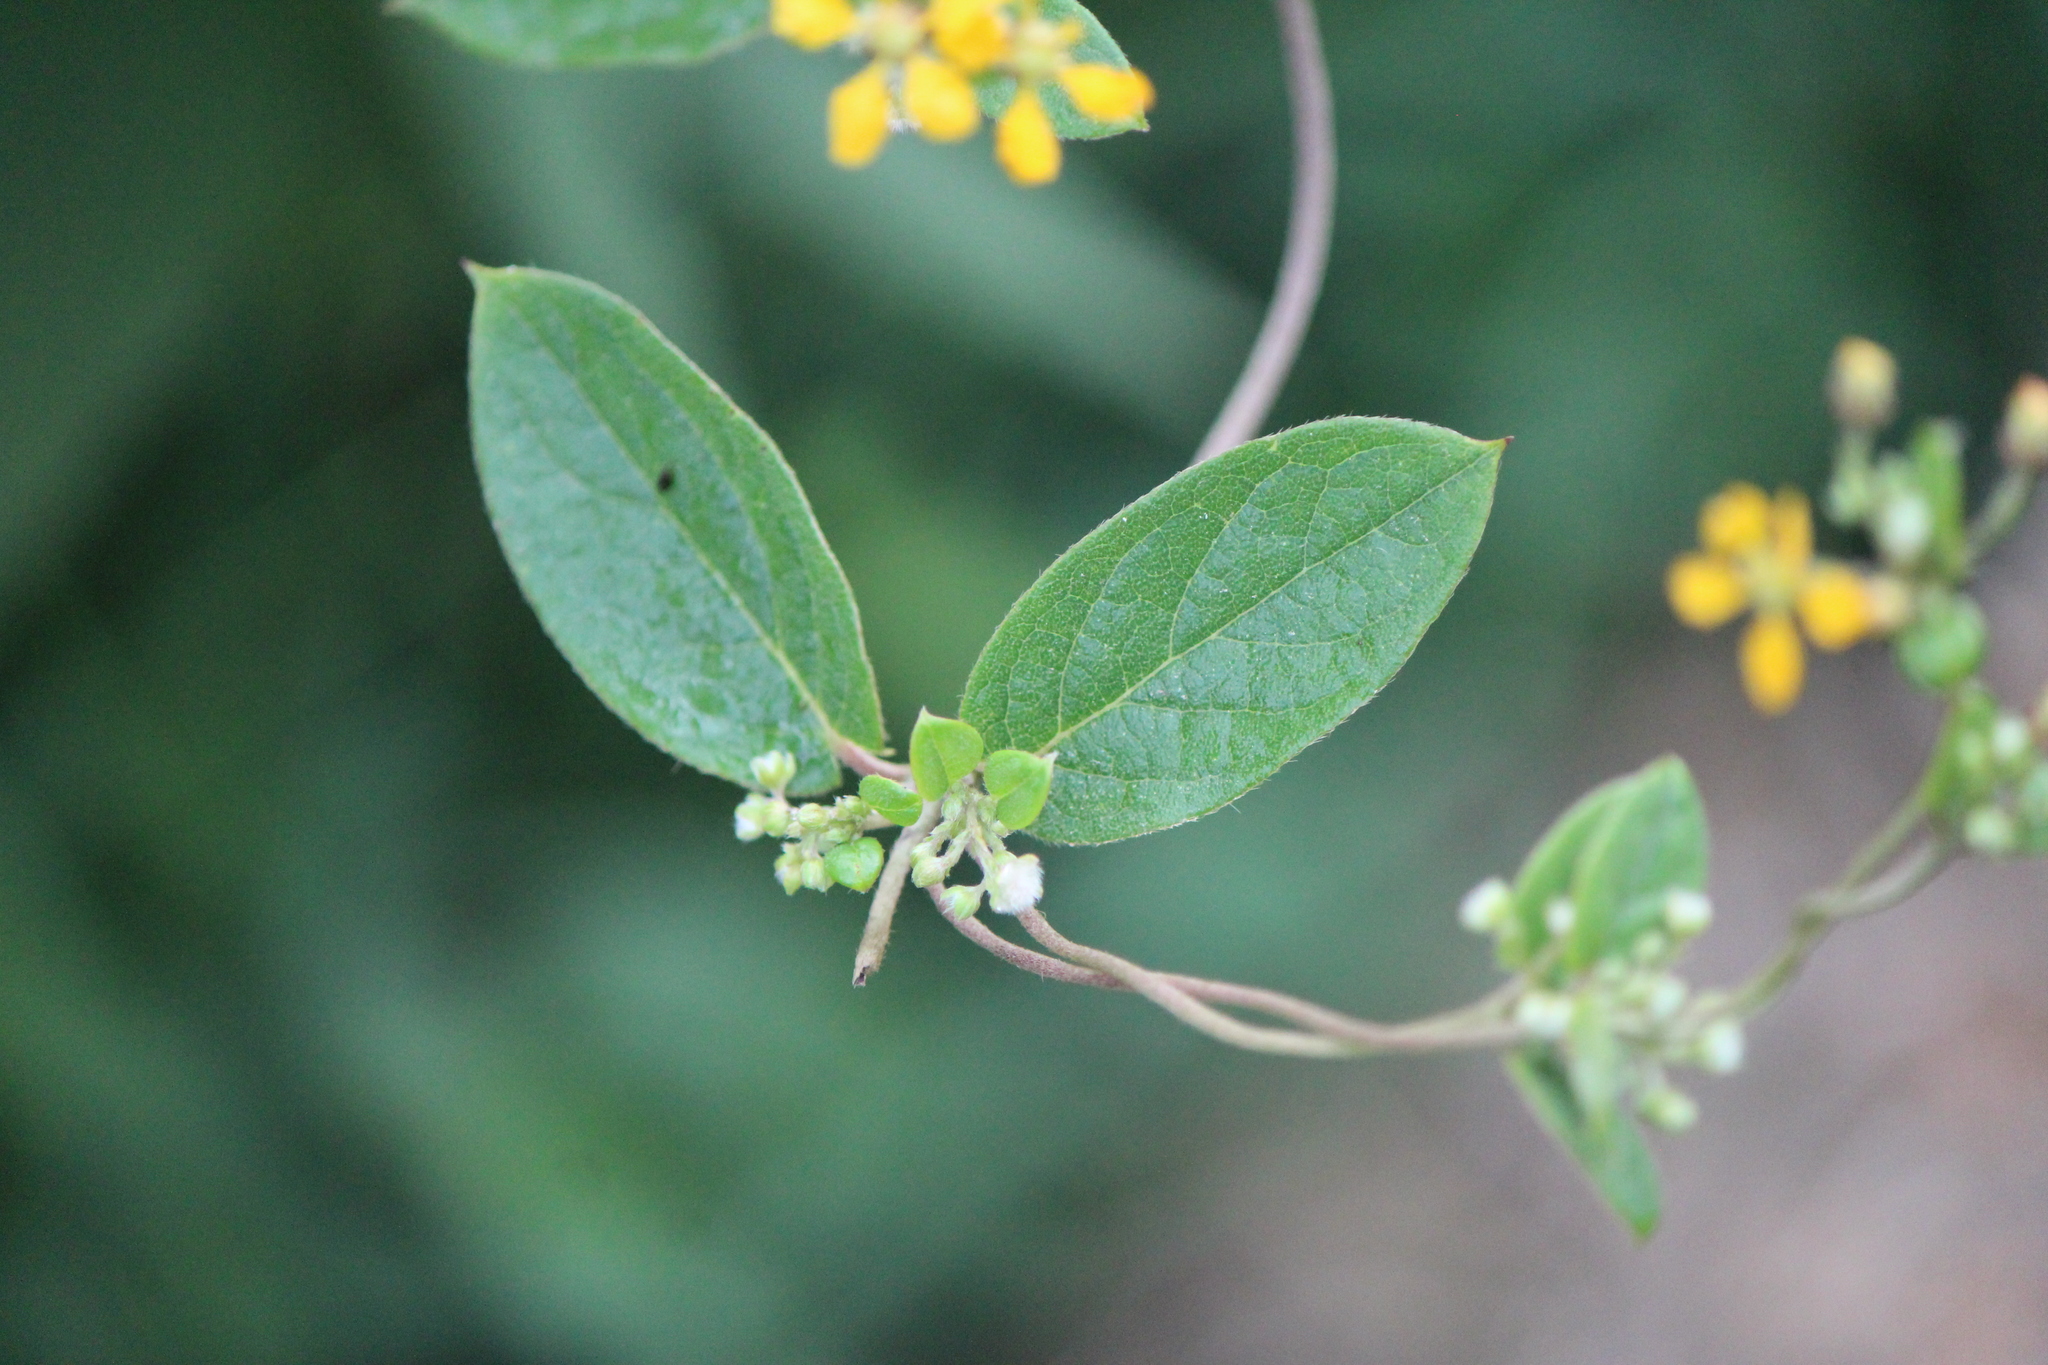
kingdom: Plantae
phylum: Tracheophyta
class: Magnoliopsida
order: Malpighiales
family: Malpighiaceae
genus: Gaudichaudia
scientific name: Gaudichaudia cynanchoides
